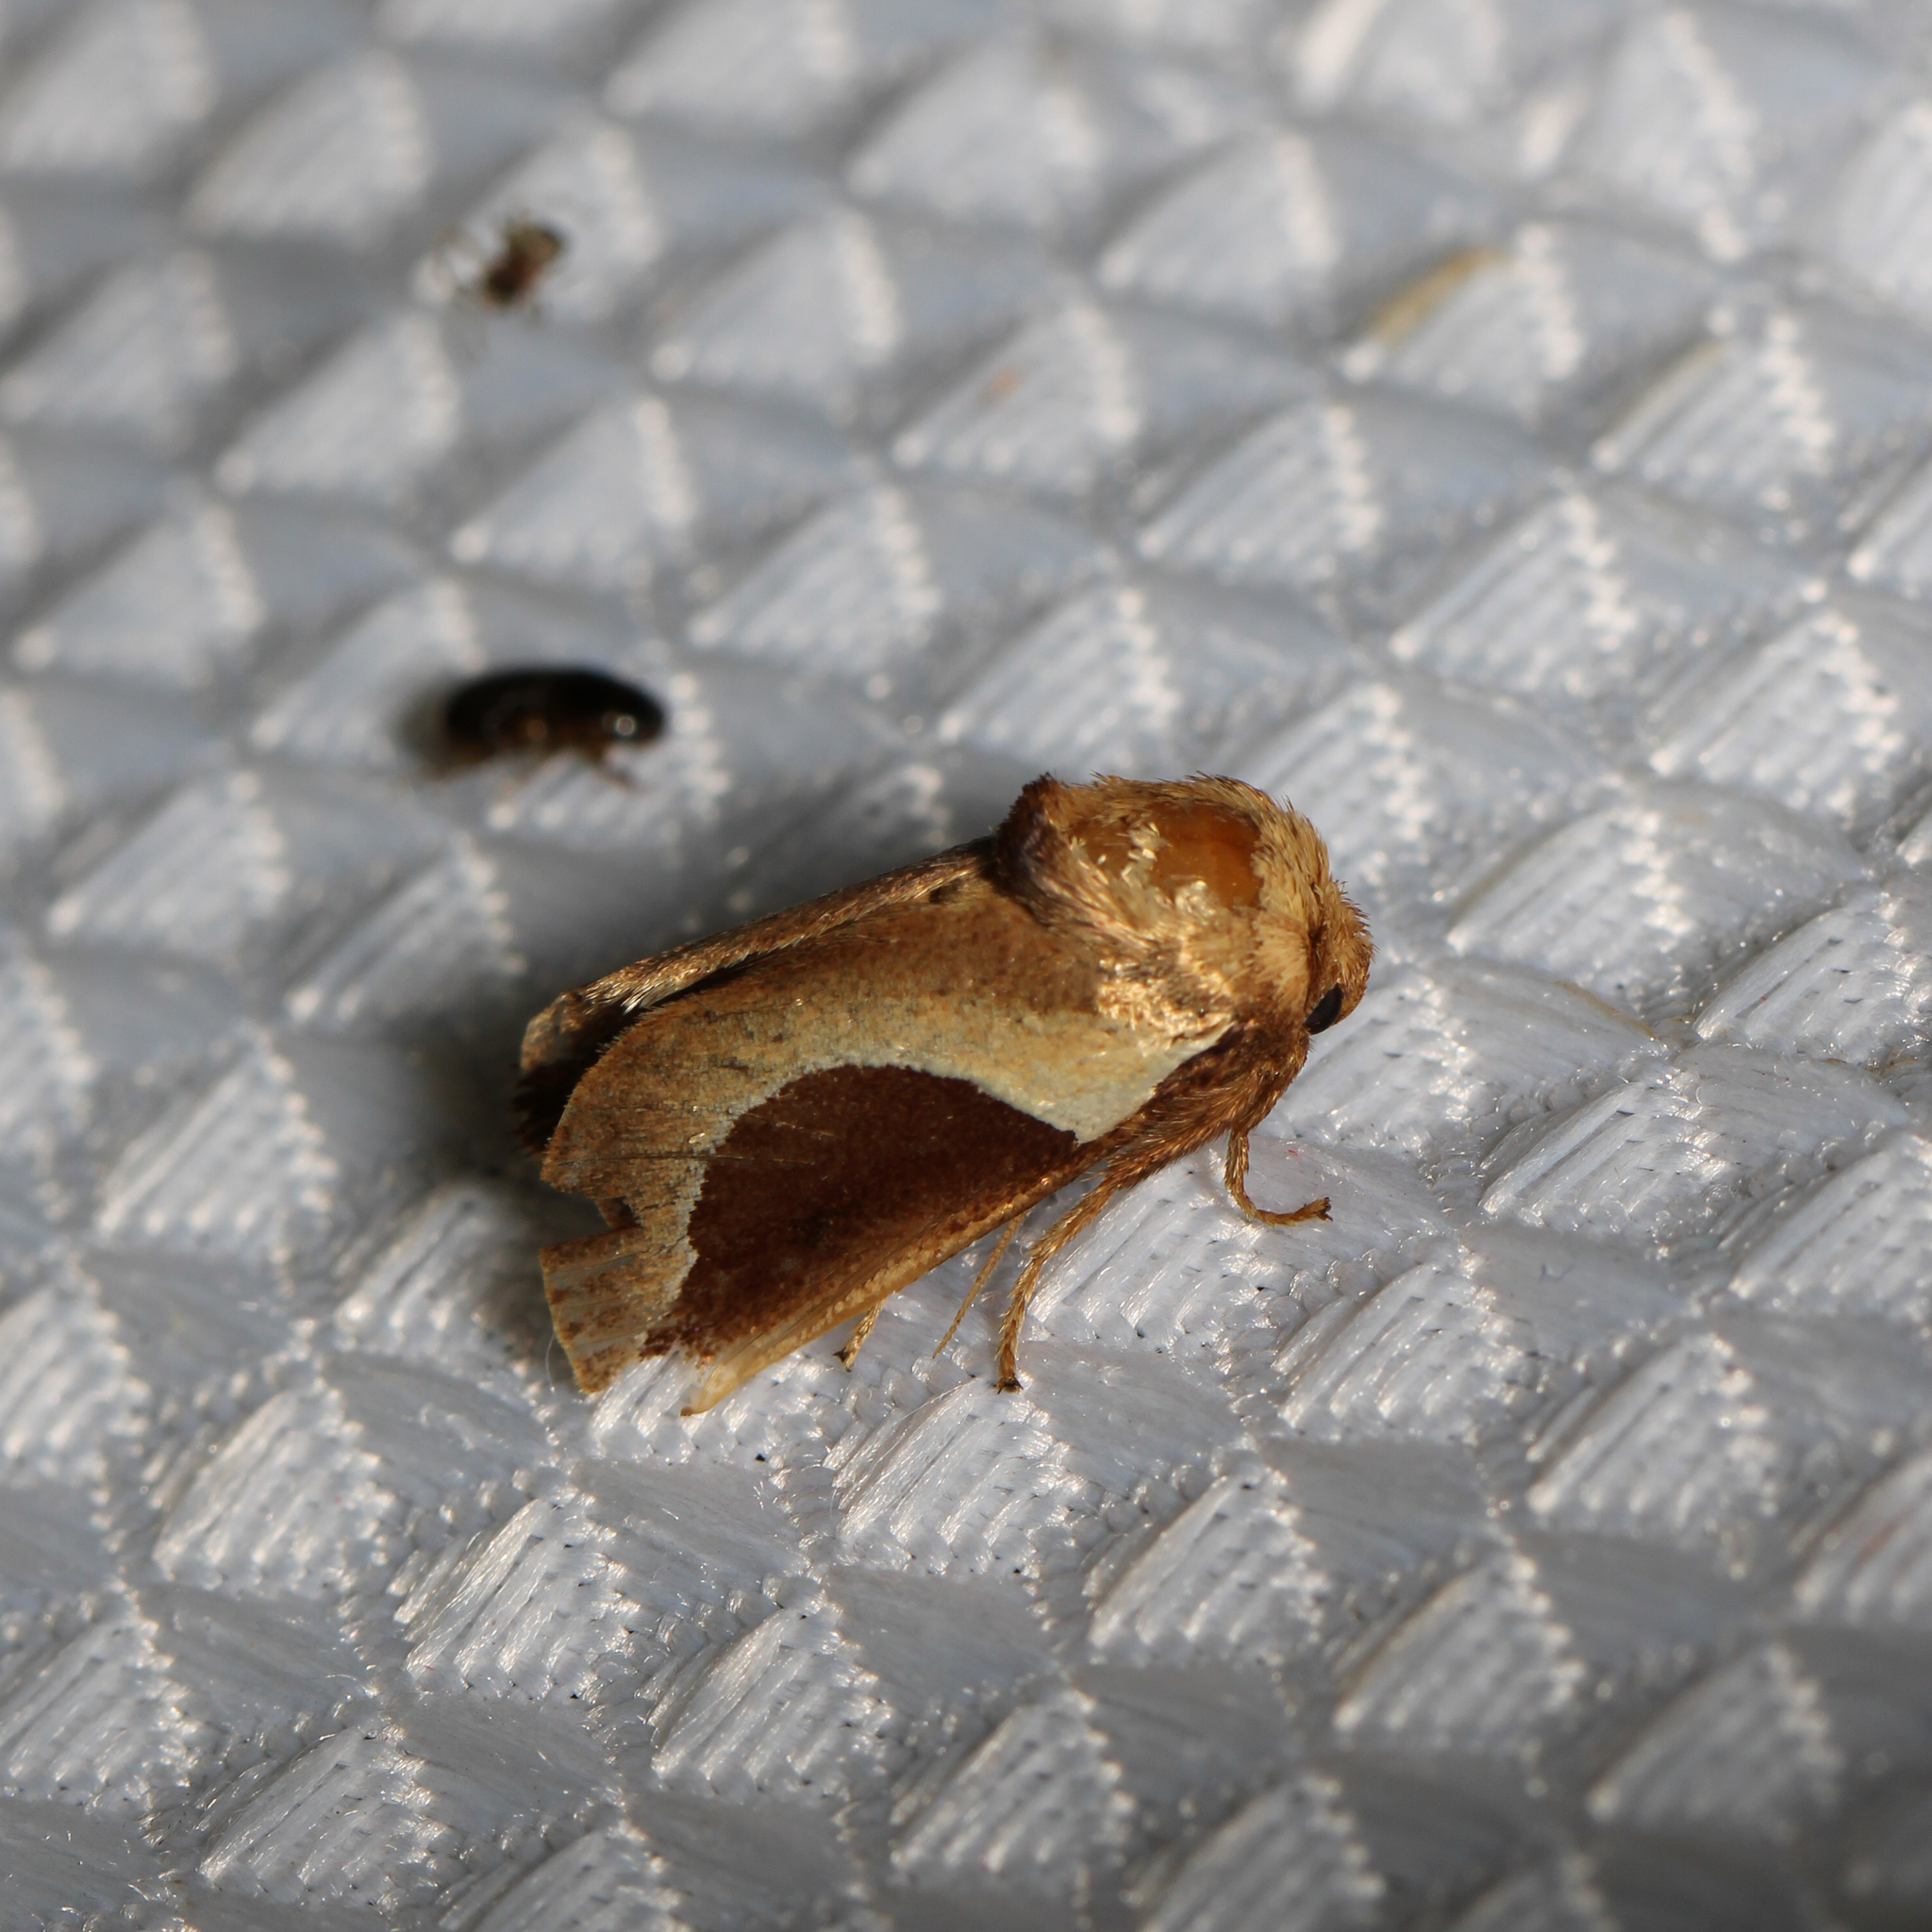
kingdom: Animalia
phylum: Arthropoda
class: Insecta
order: Lepidoptera
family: Limacodidae
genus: Prolimacodes
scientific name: Prolimacodes badia
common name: Skiff moth
